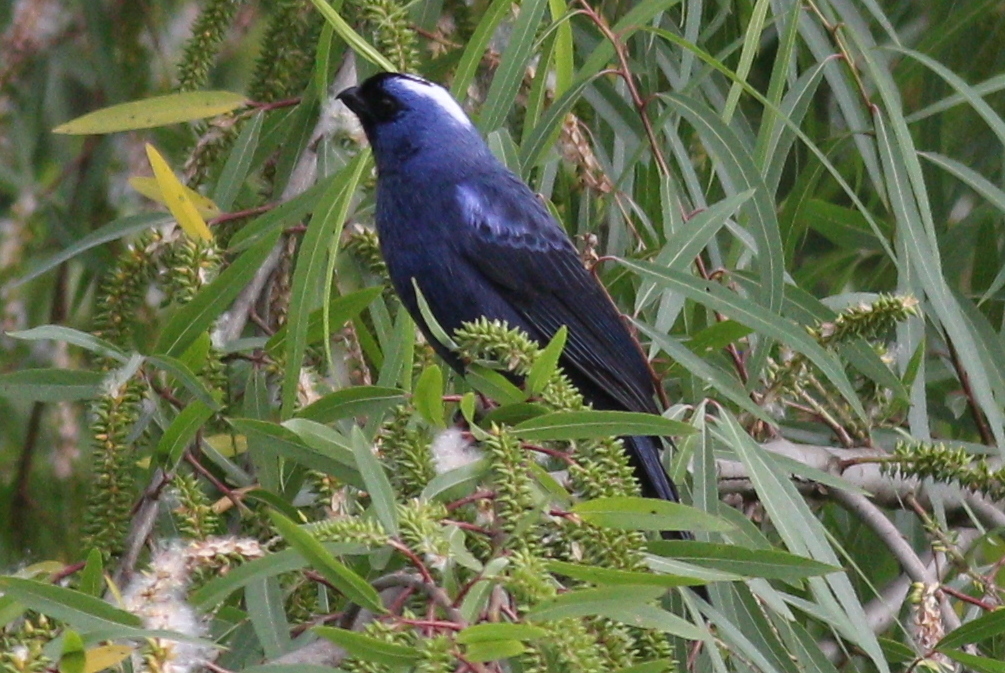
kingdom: Animalia
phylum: Chordata
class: Aves
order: Passeriformes
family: Thraupidae
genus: Stephanophorus
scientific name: Stephanophorus diadematus
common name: Diademed tanager
